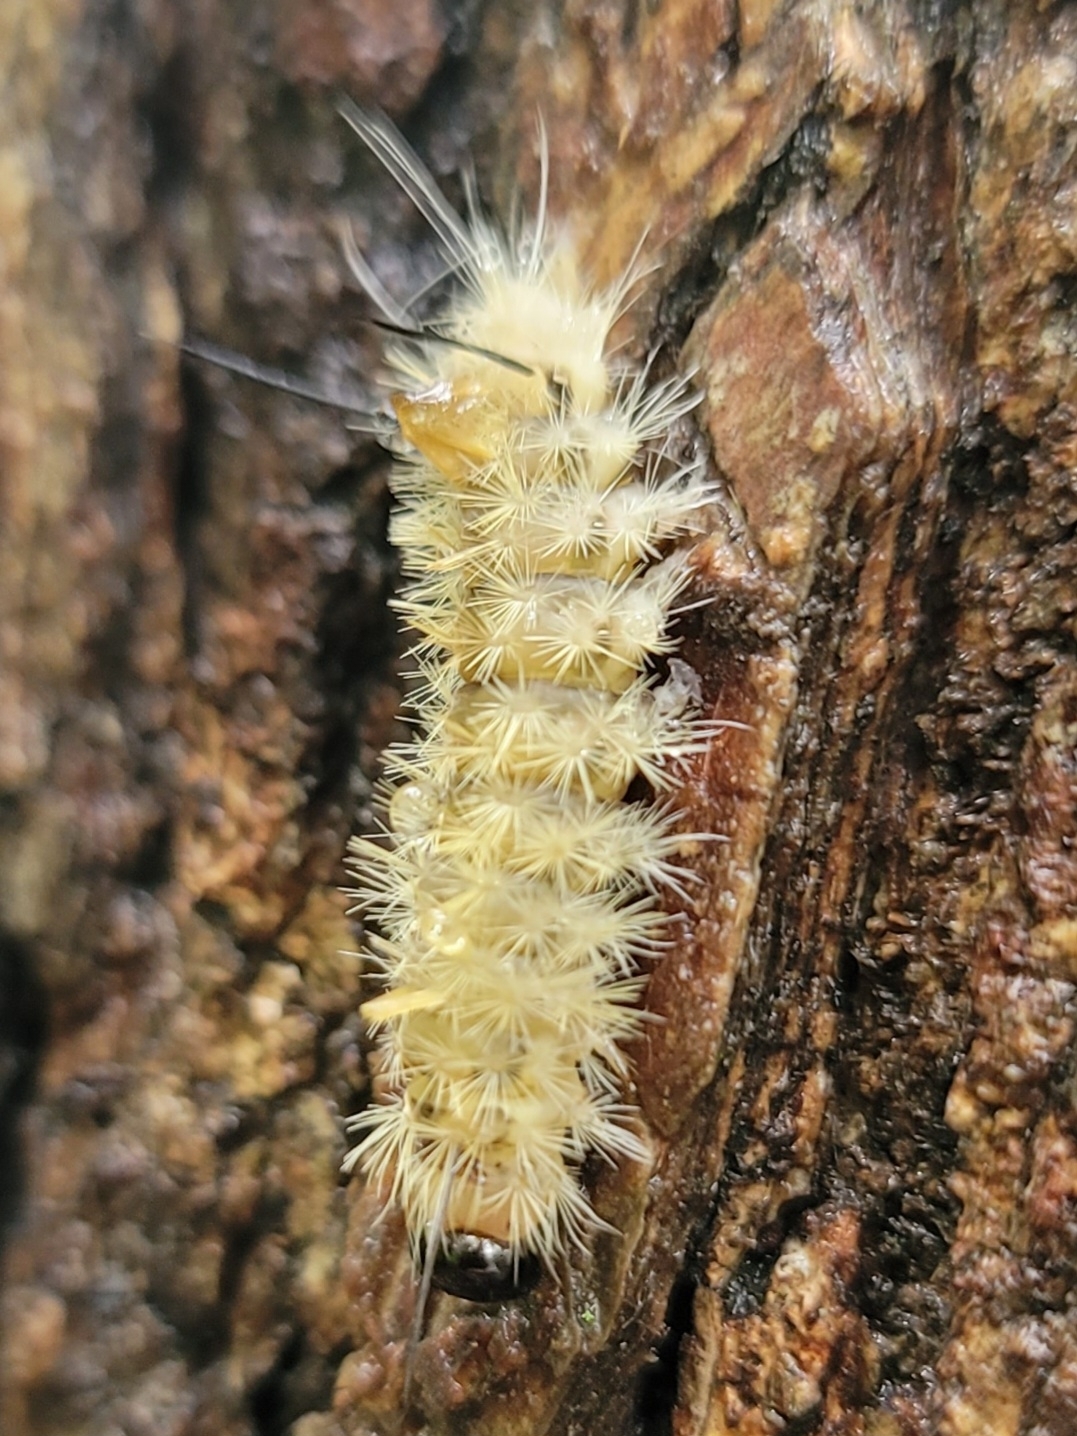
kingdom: Animalia
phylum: Arthropoda
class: Insecta
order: Lepidoptera
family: Erebidae
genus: Halysidota
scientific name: Halysidota tessellaris
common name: Banded tussock moth
